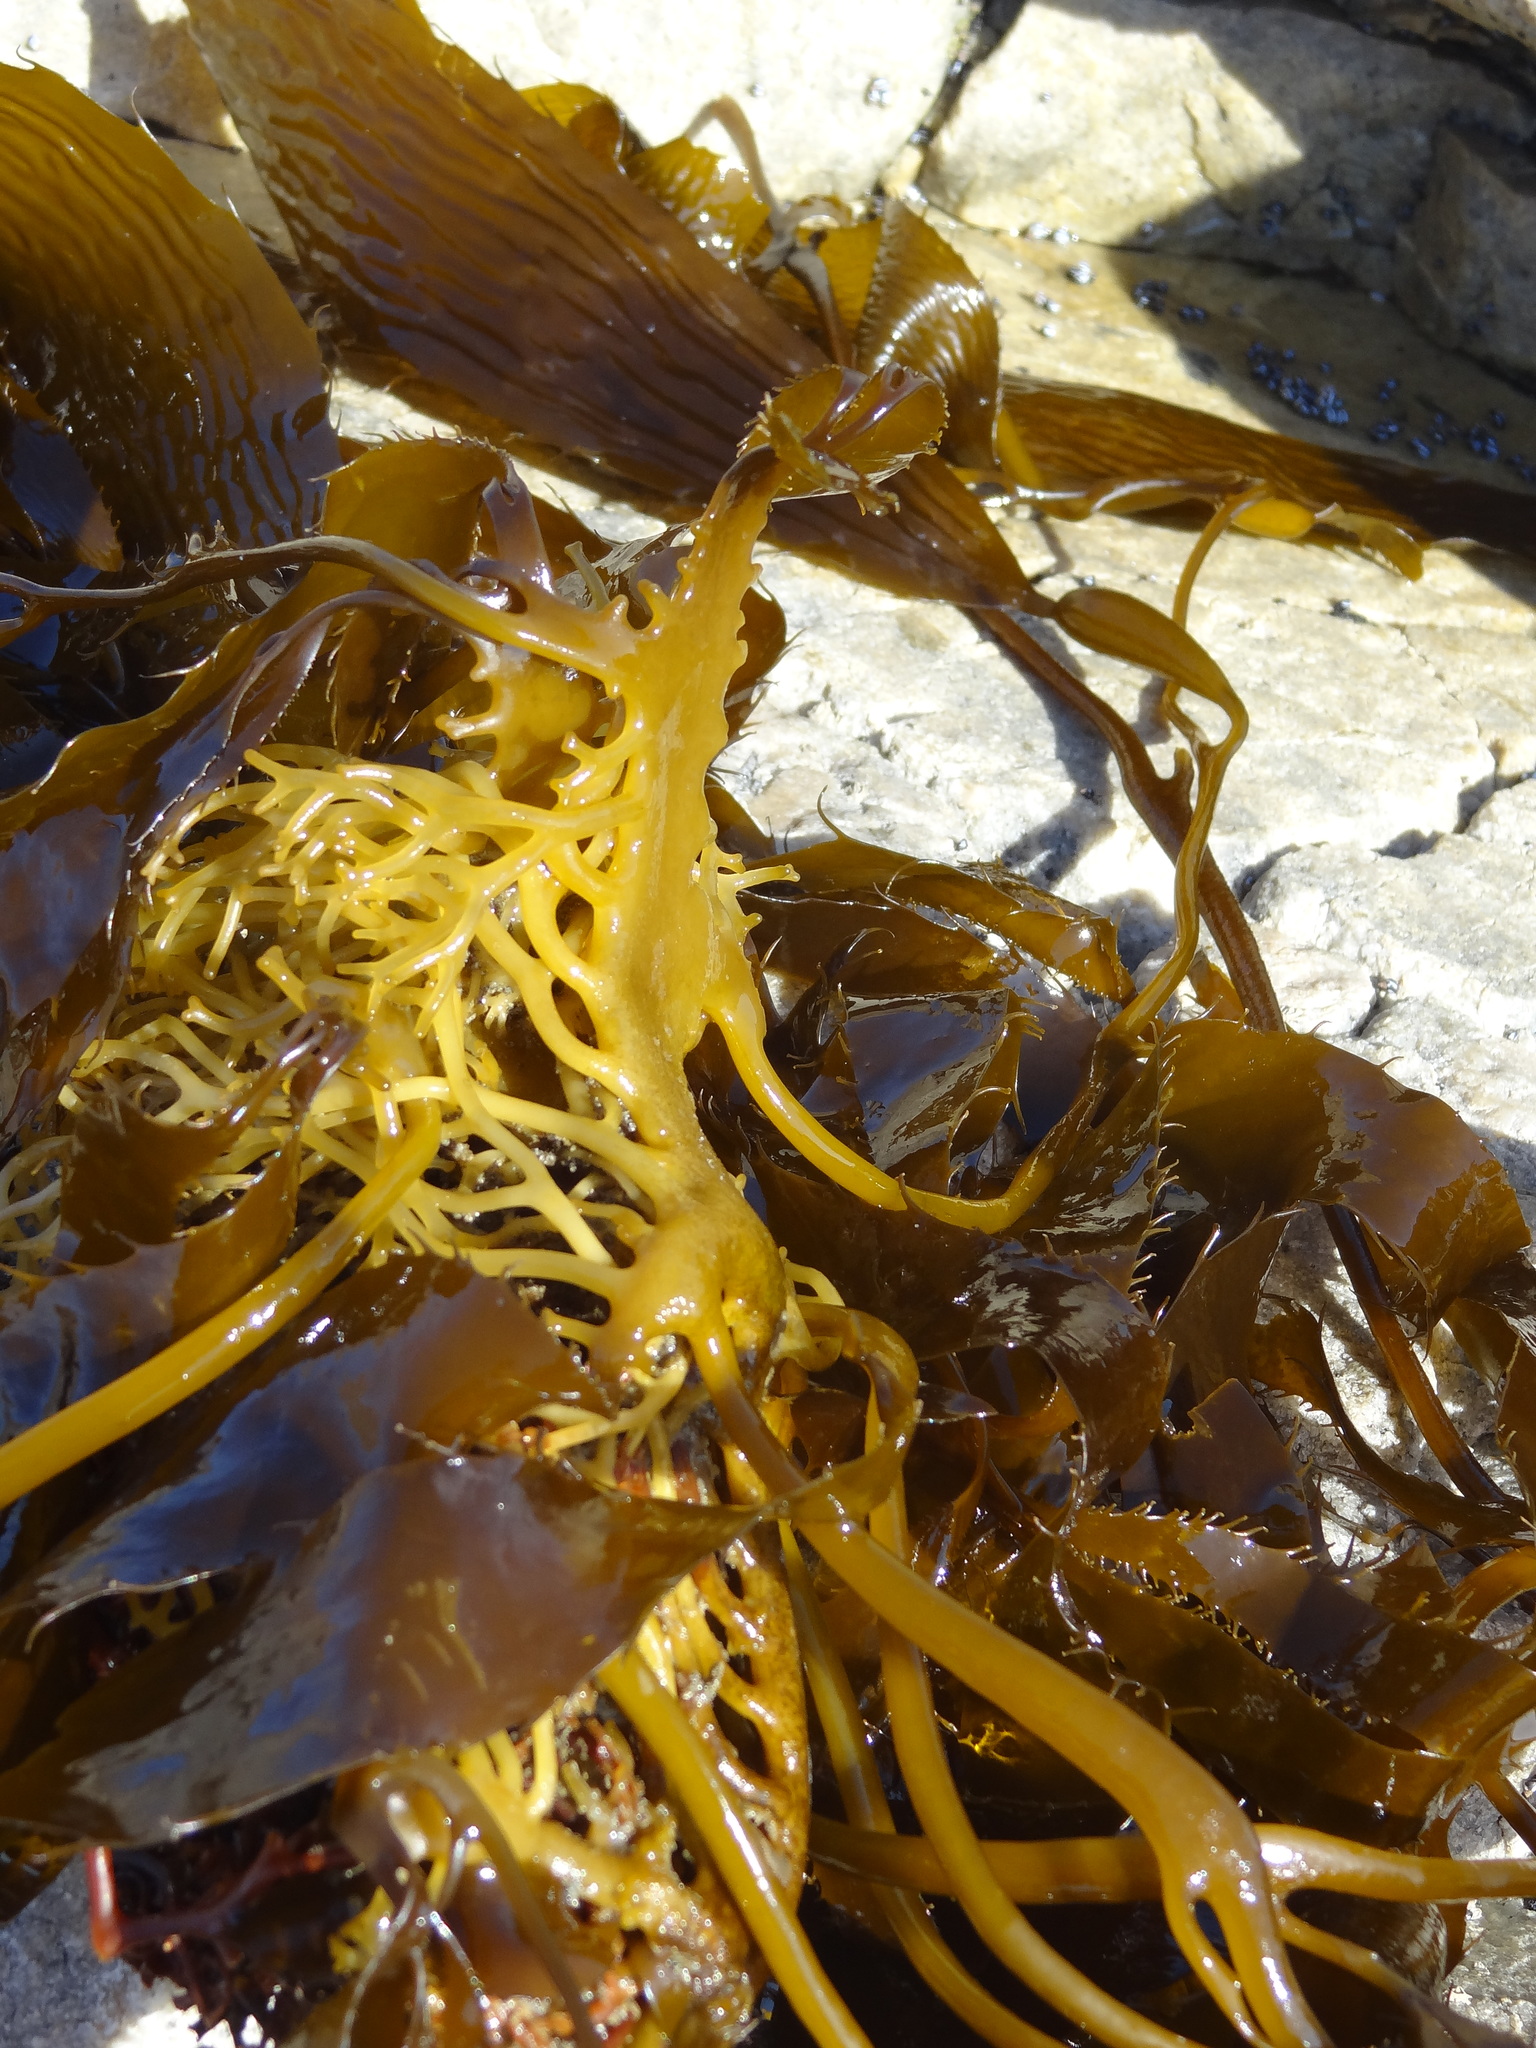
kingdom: Chromista
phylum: Ochrophyta
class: Phaeophyceae
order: Laminariales
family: Laminariaceae
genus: Macrocystis
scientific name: Macrocystis pyrifera
